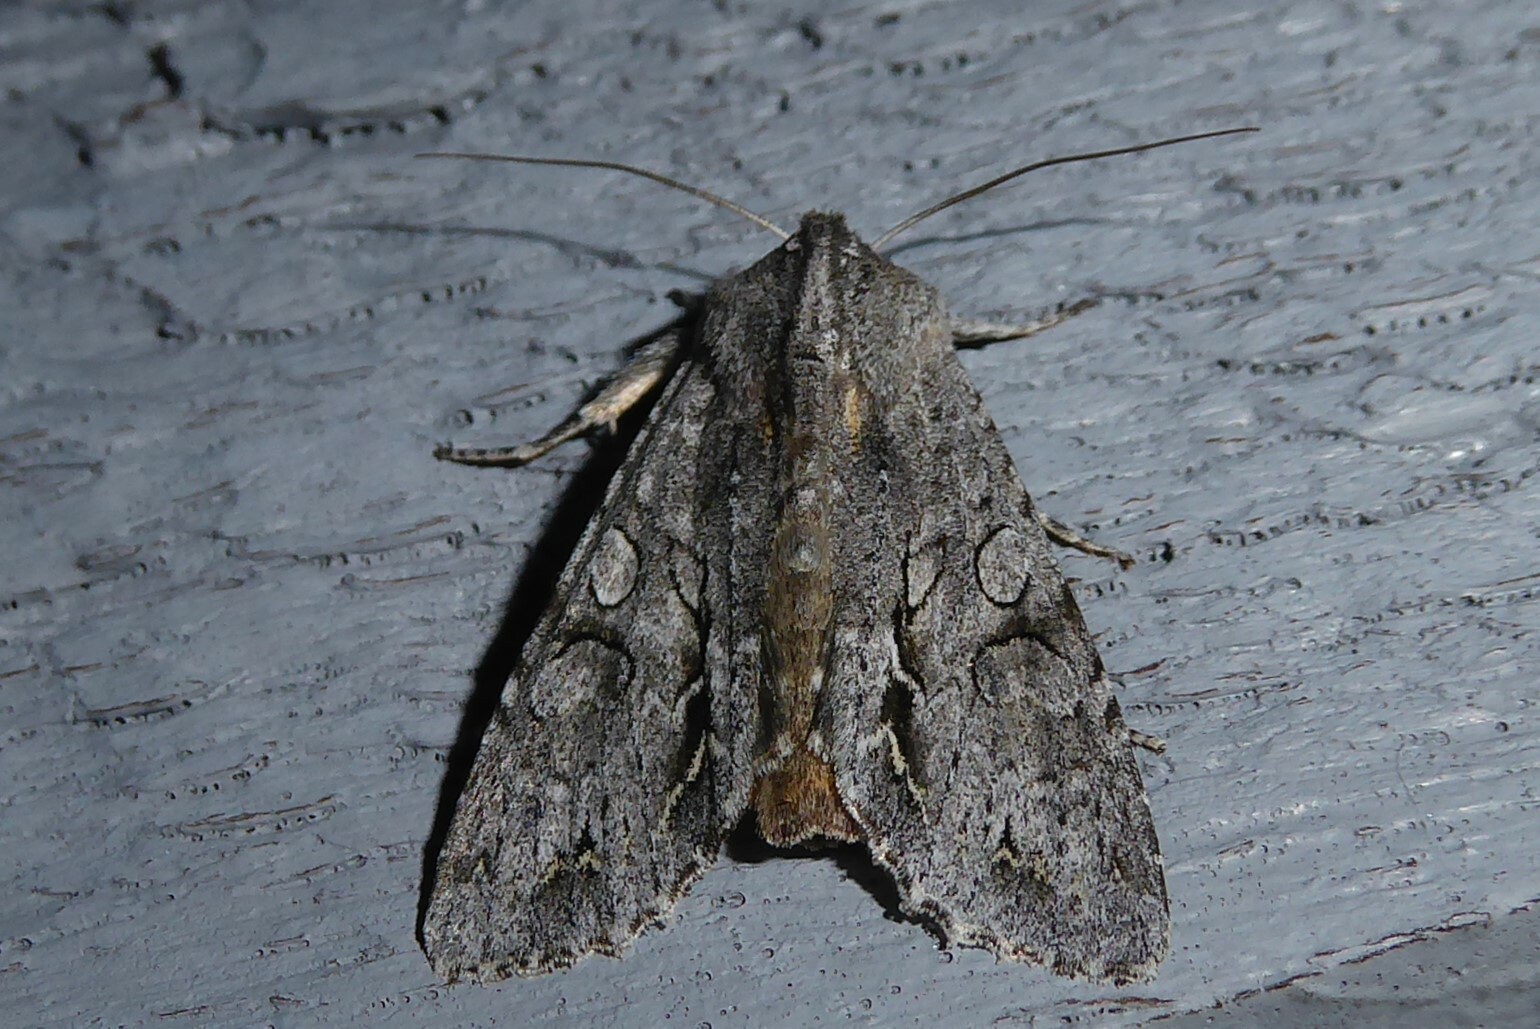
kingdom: Animalia
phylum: Arthropoda
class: Insecta
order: Lepidoptera
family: Noctuidae
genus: Ichneutica
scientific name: Ichneutica
